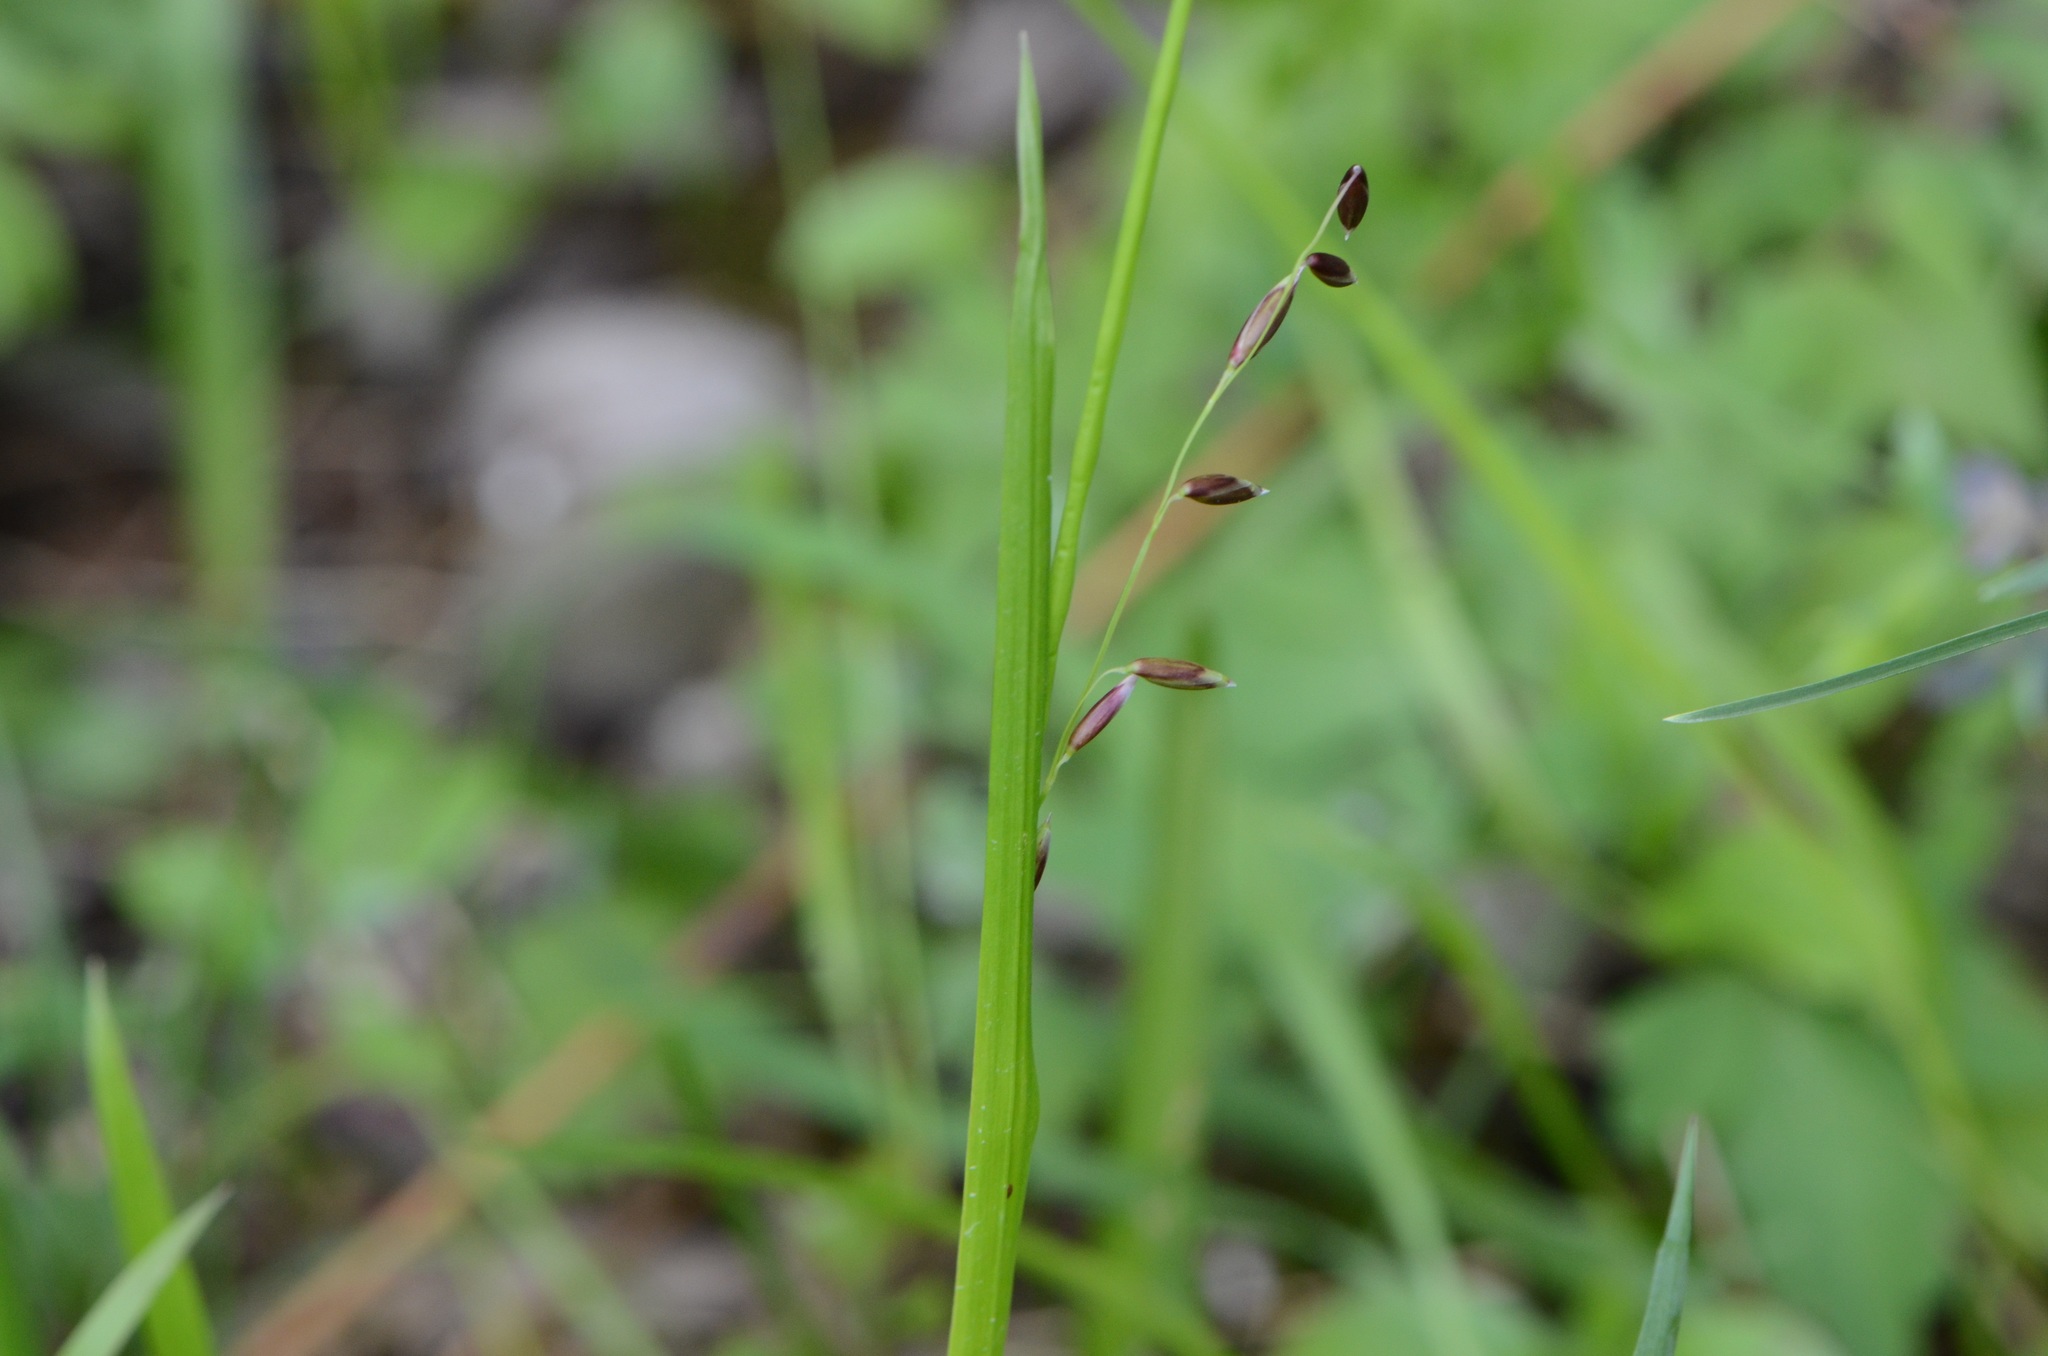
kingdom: Plantae
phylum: Tracheophyta
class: Liliopsida
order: Poales
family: Poaceae
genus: Melica
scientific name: Melica nutans
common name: Mountain melick
